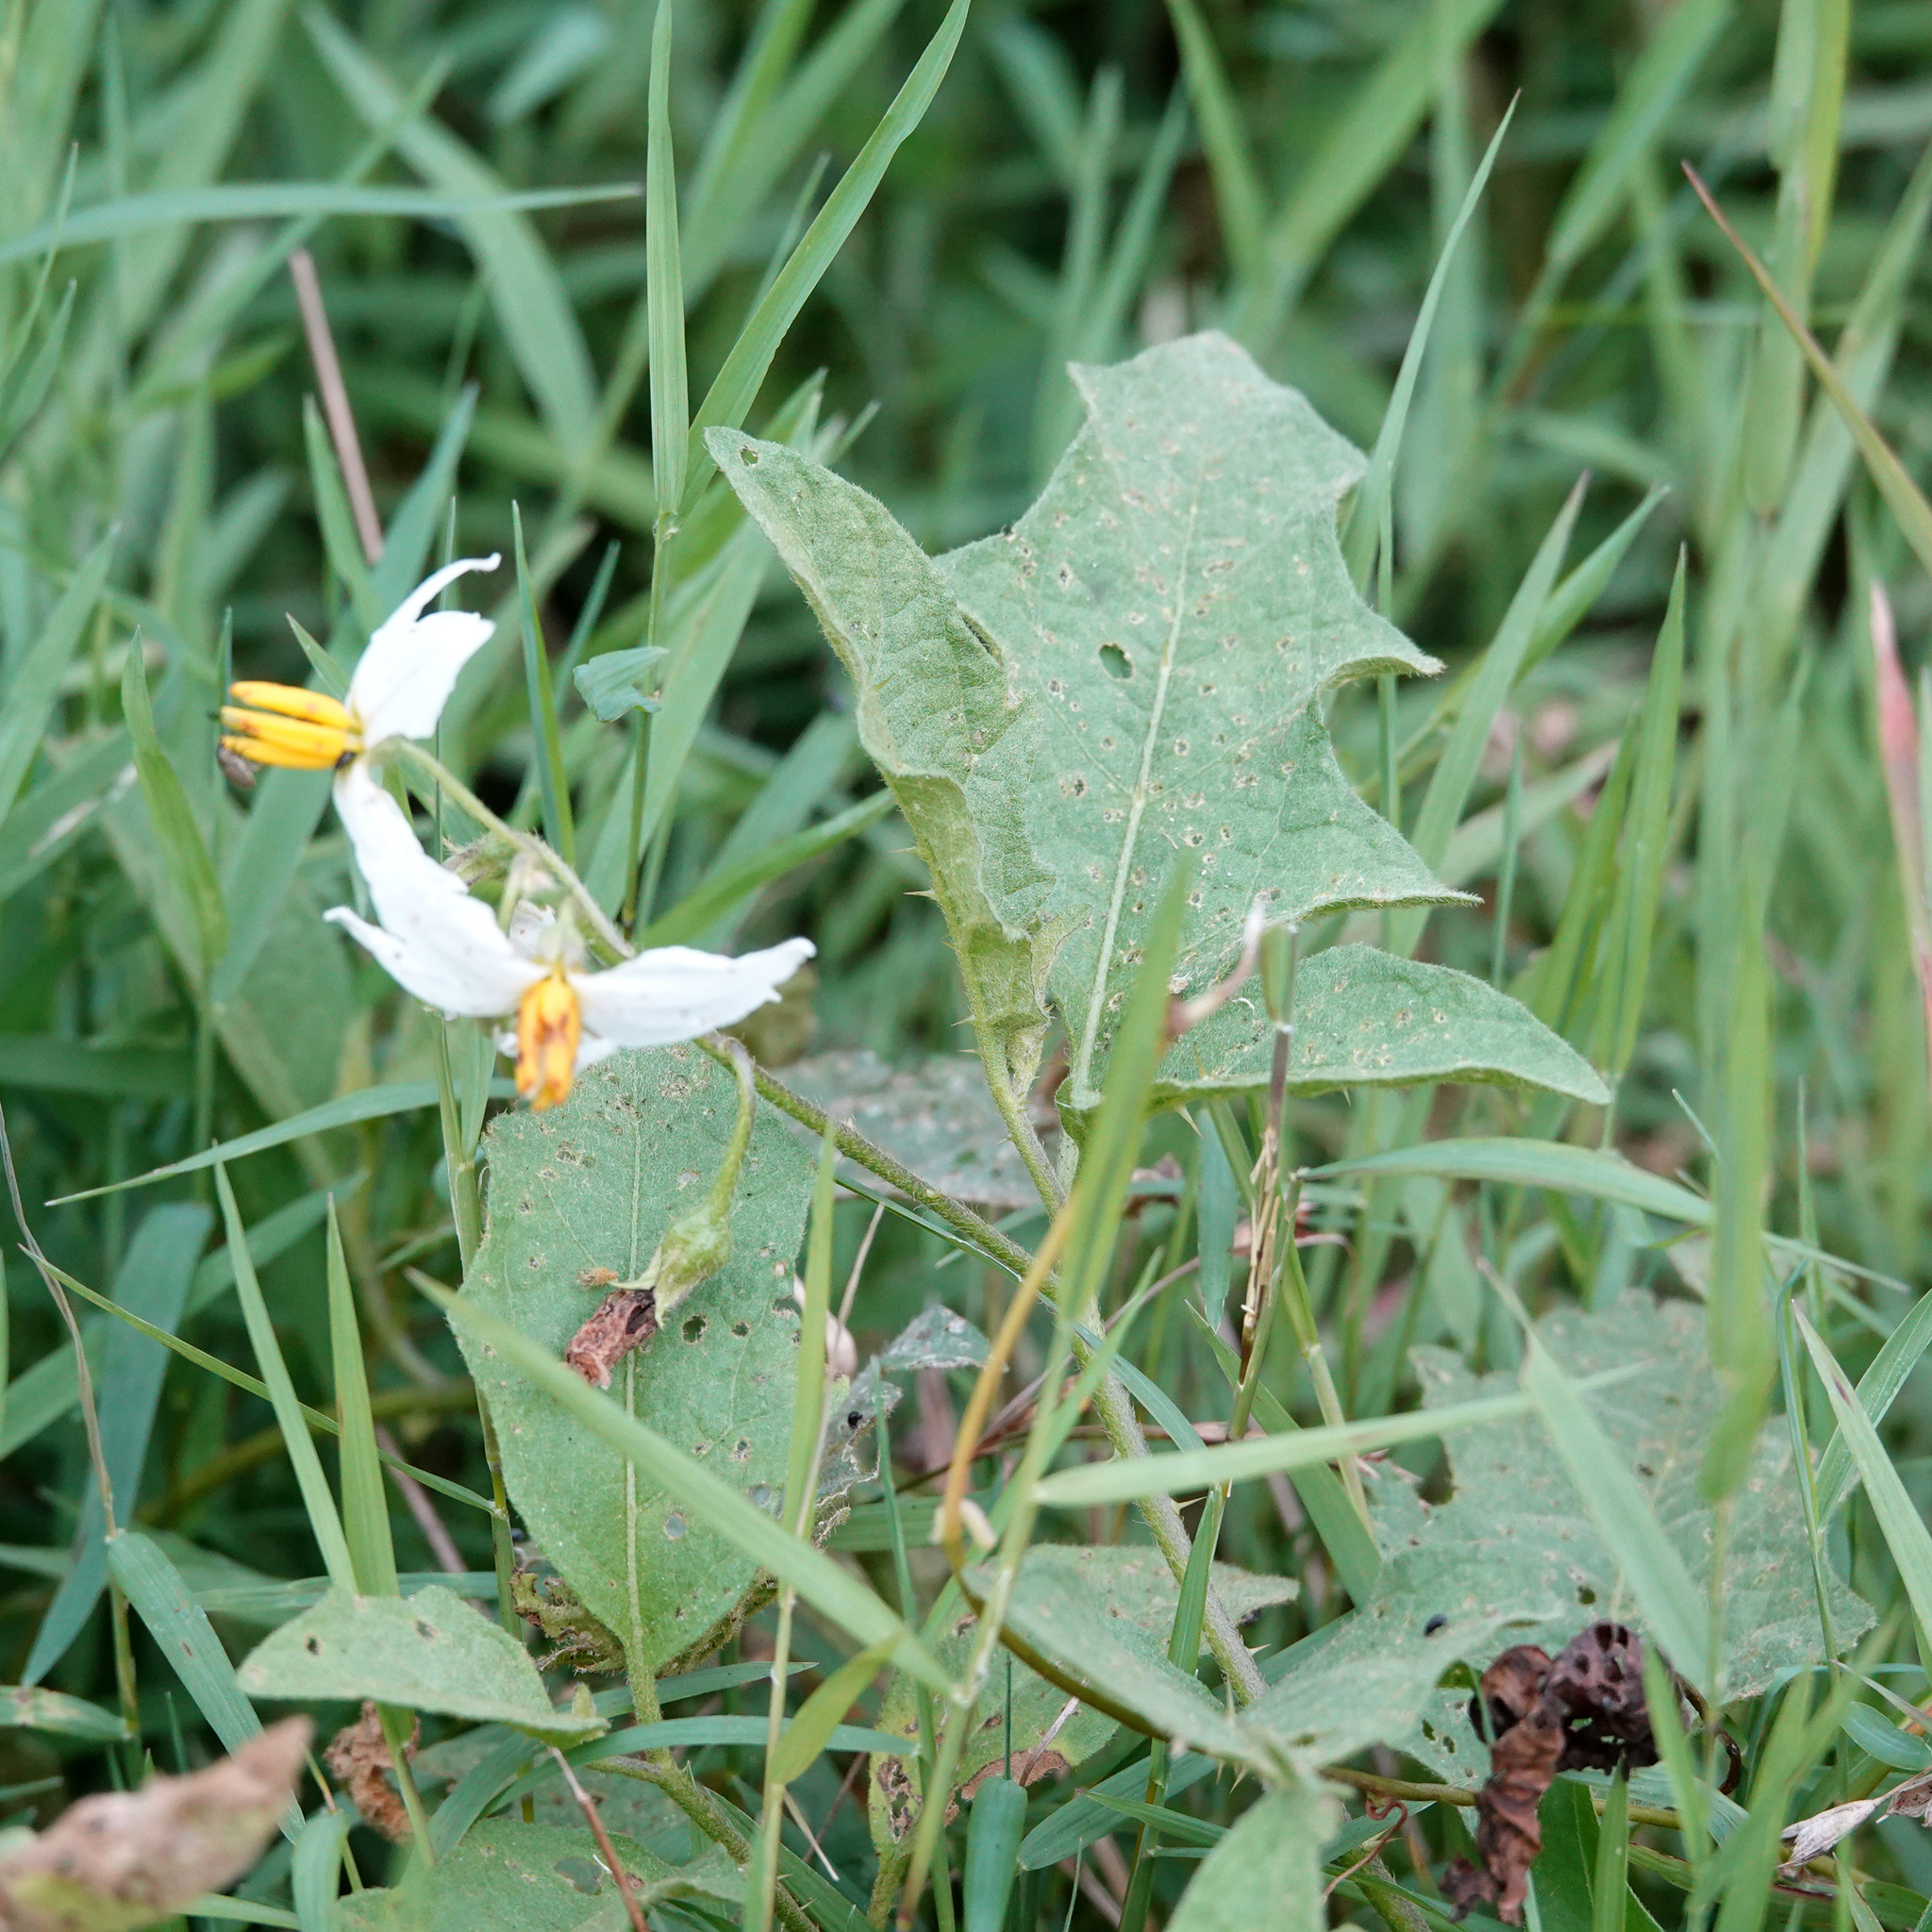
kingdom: Plantae
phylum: Tracheophyta
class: Magnoliopsida
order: Solanales
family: Solanaceae
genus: Solanum
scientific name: Solanum carolinense
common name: Horse-nettle
